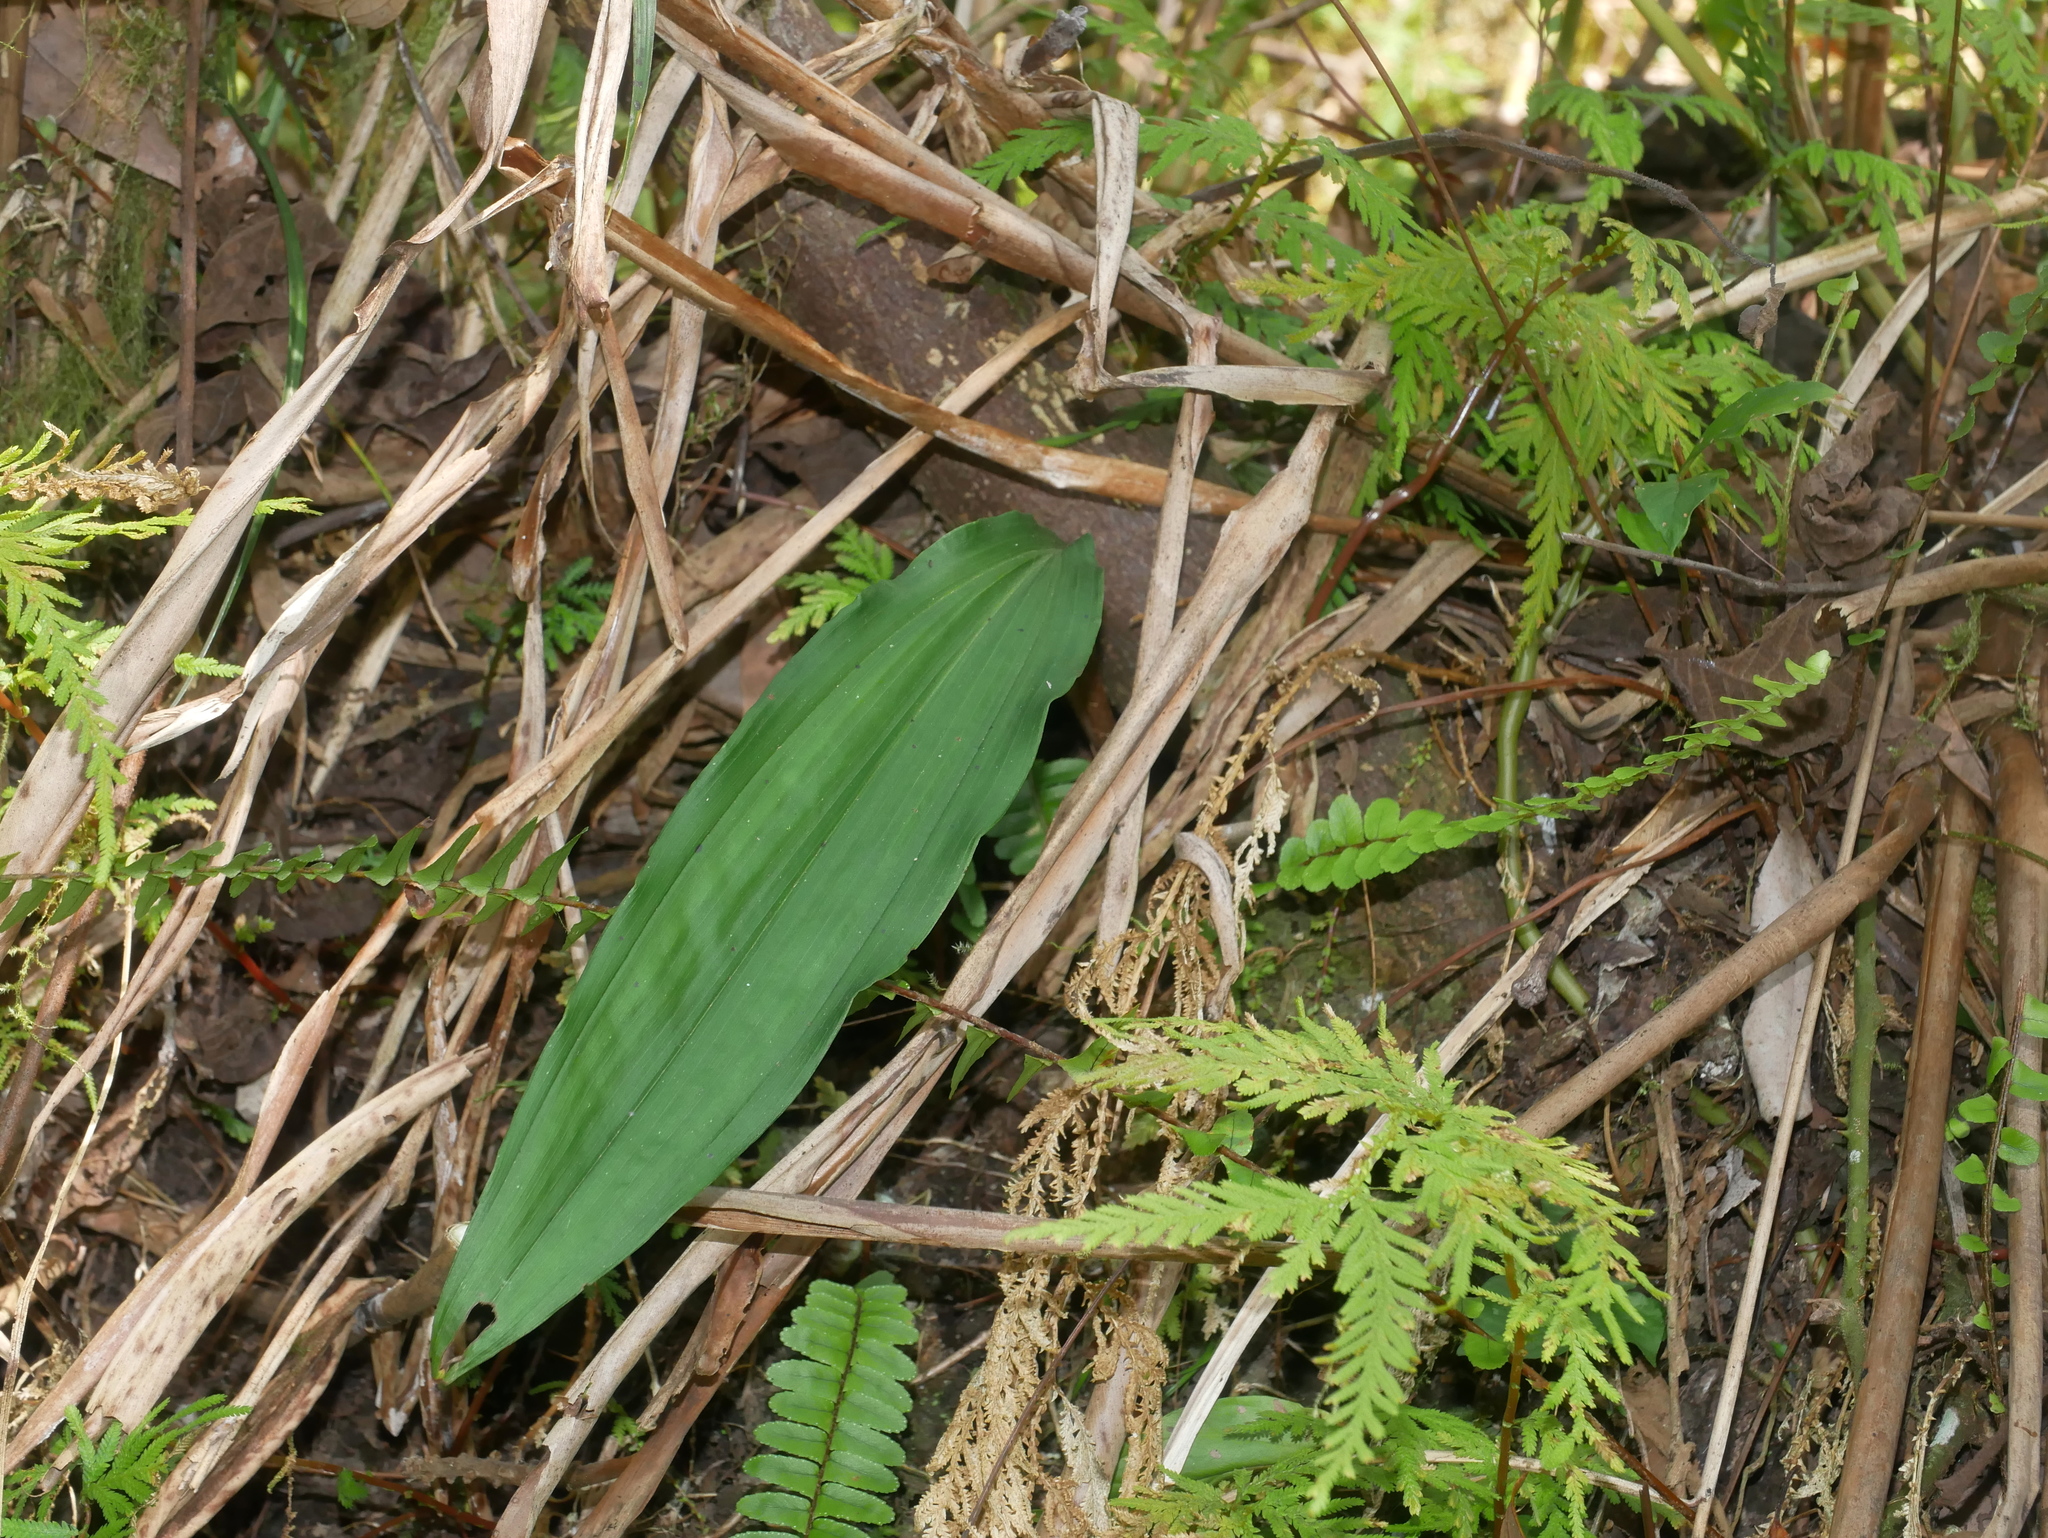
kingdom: Plantae
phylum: Tracheophyta
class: Liliopsida
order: Asparagales
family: Orchidaceae
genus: Cremastra
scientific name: Cremastra appendiculata
